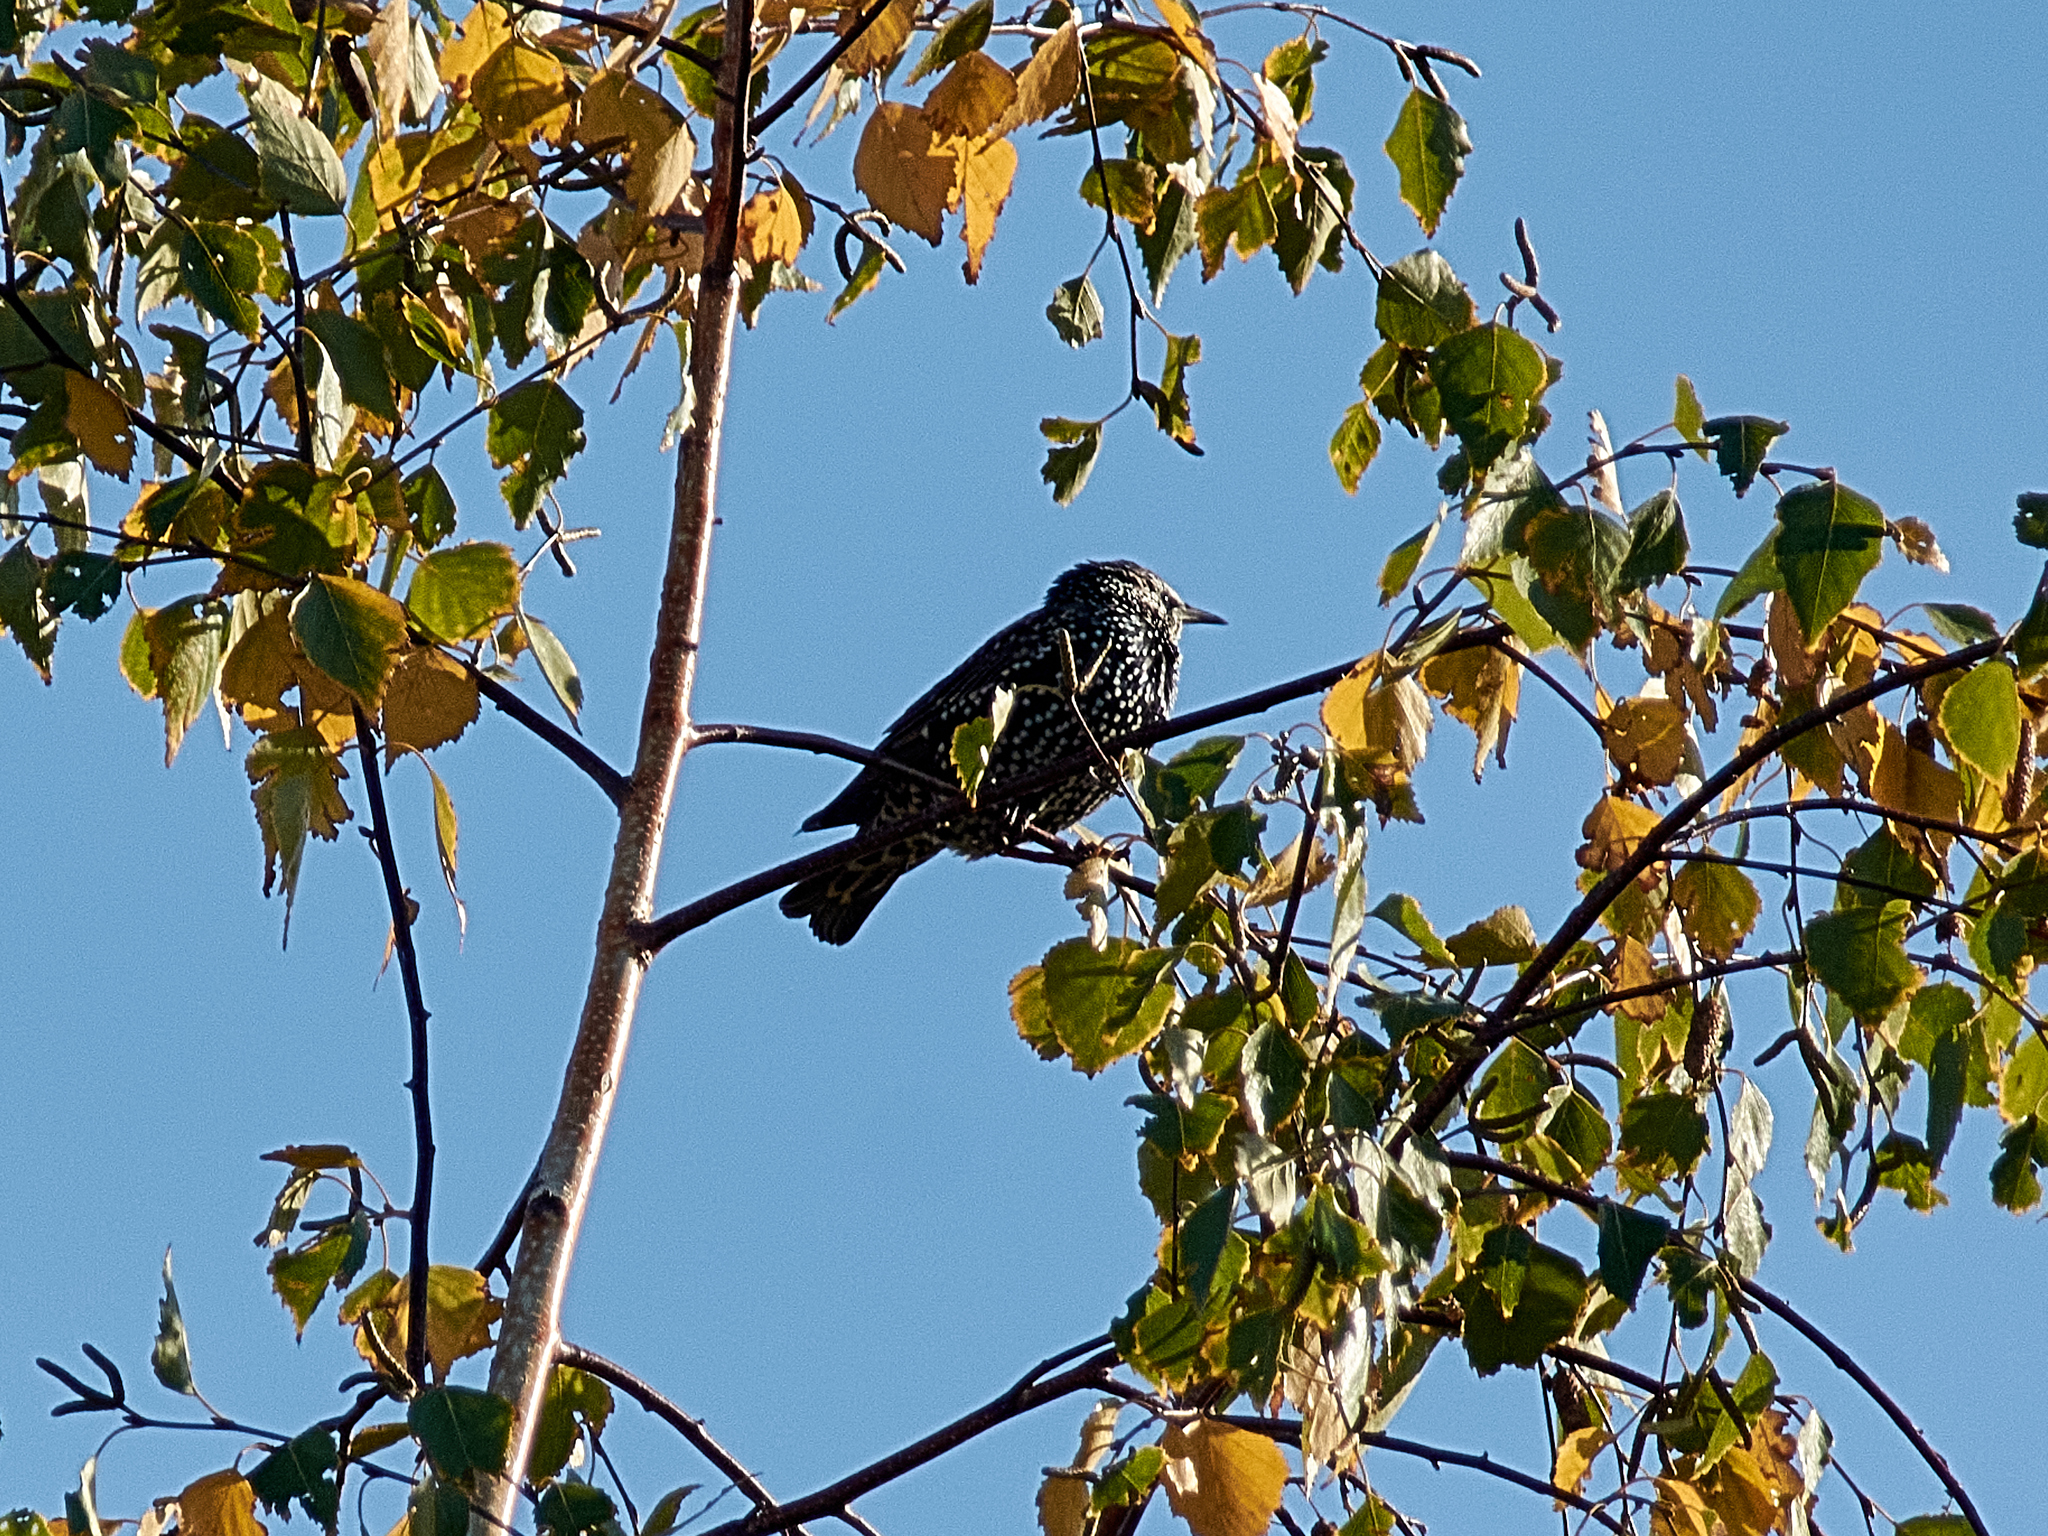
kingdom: Animalia
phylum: Chordata
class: Aves
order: Passeriformes
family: Sturnidae
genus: Sturnus
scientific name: Sturnus vulgaris
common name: Common starling
